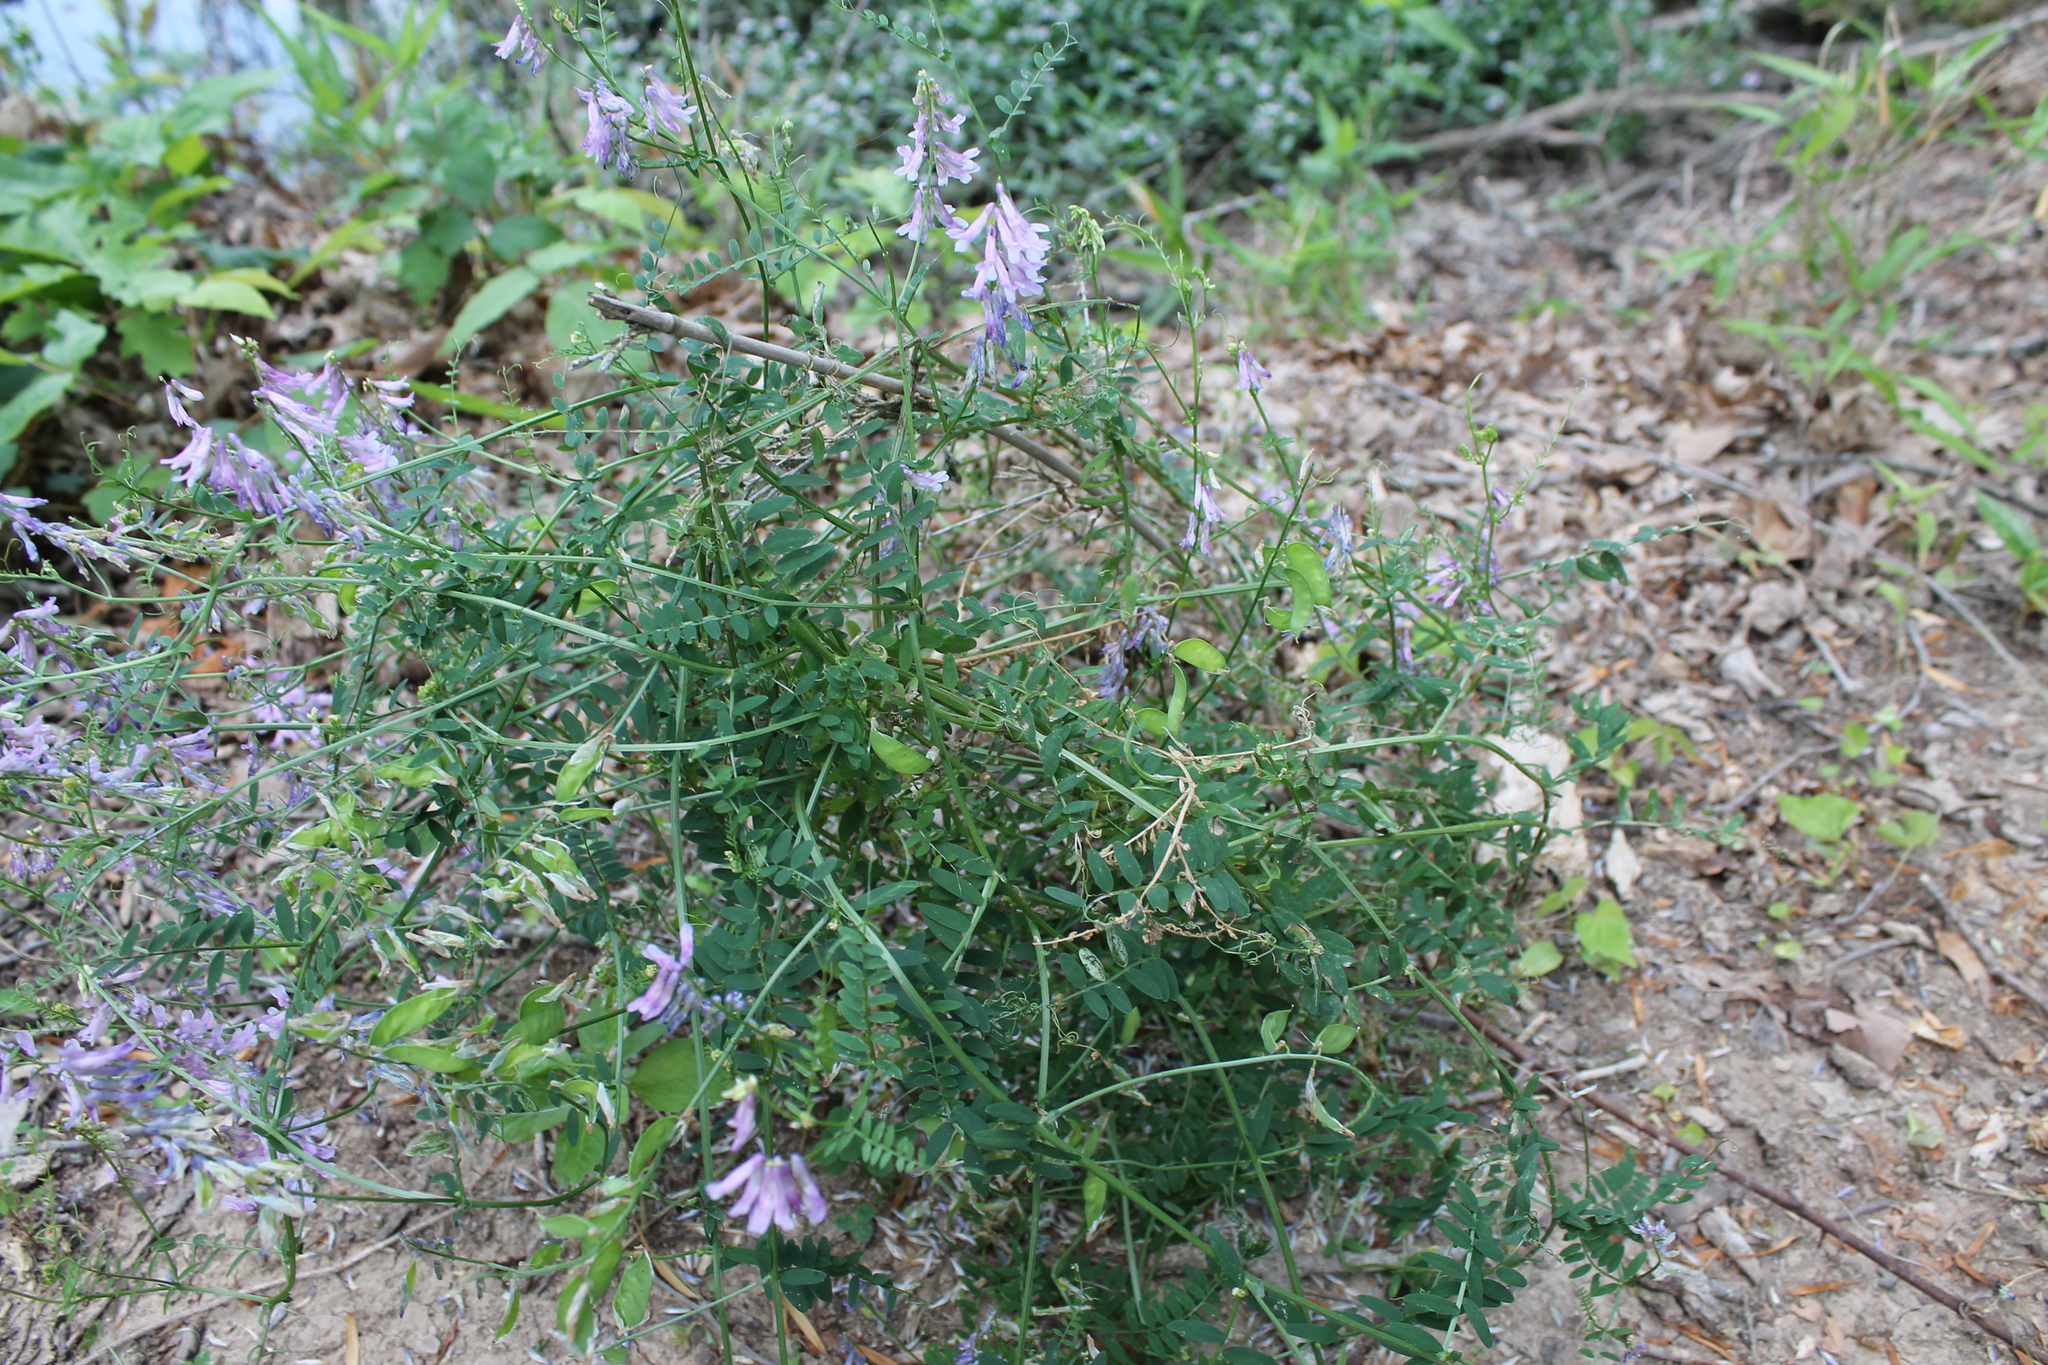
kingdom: Plantae
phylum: Tracheophyta
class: Magnoliopsida
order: Fabales
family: Fabaceae
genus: Vicia
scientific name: Vicia villosa
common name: Fodder vetch
